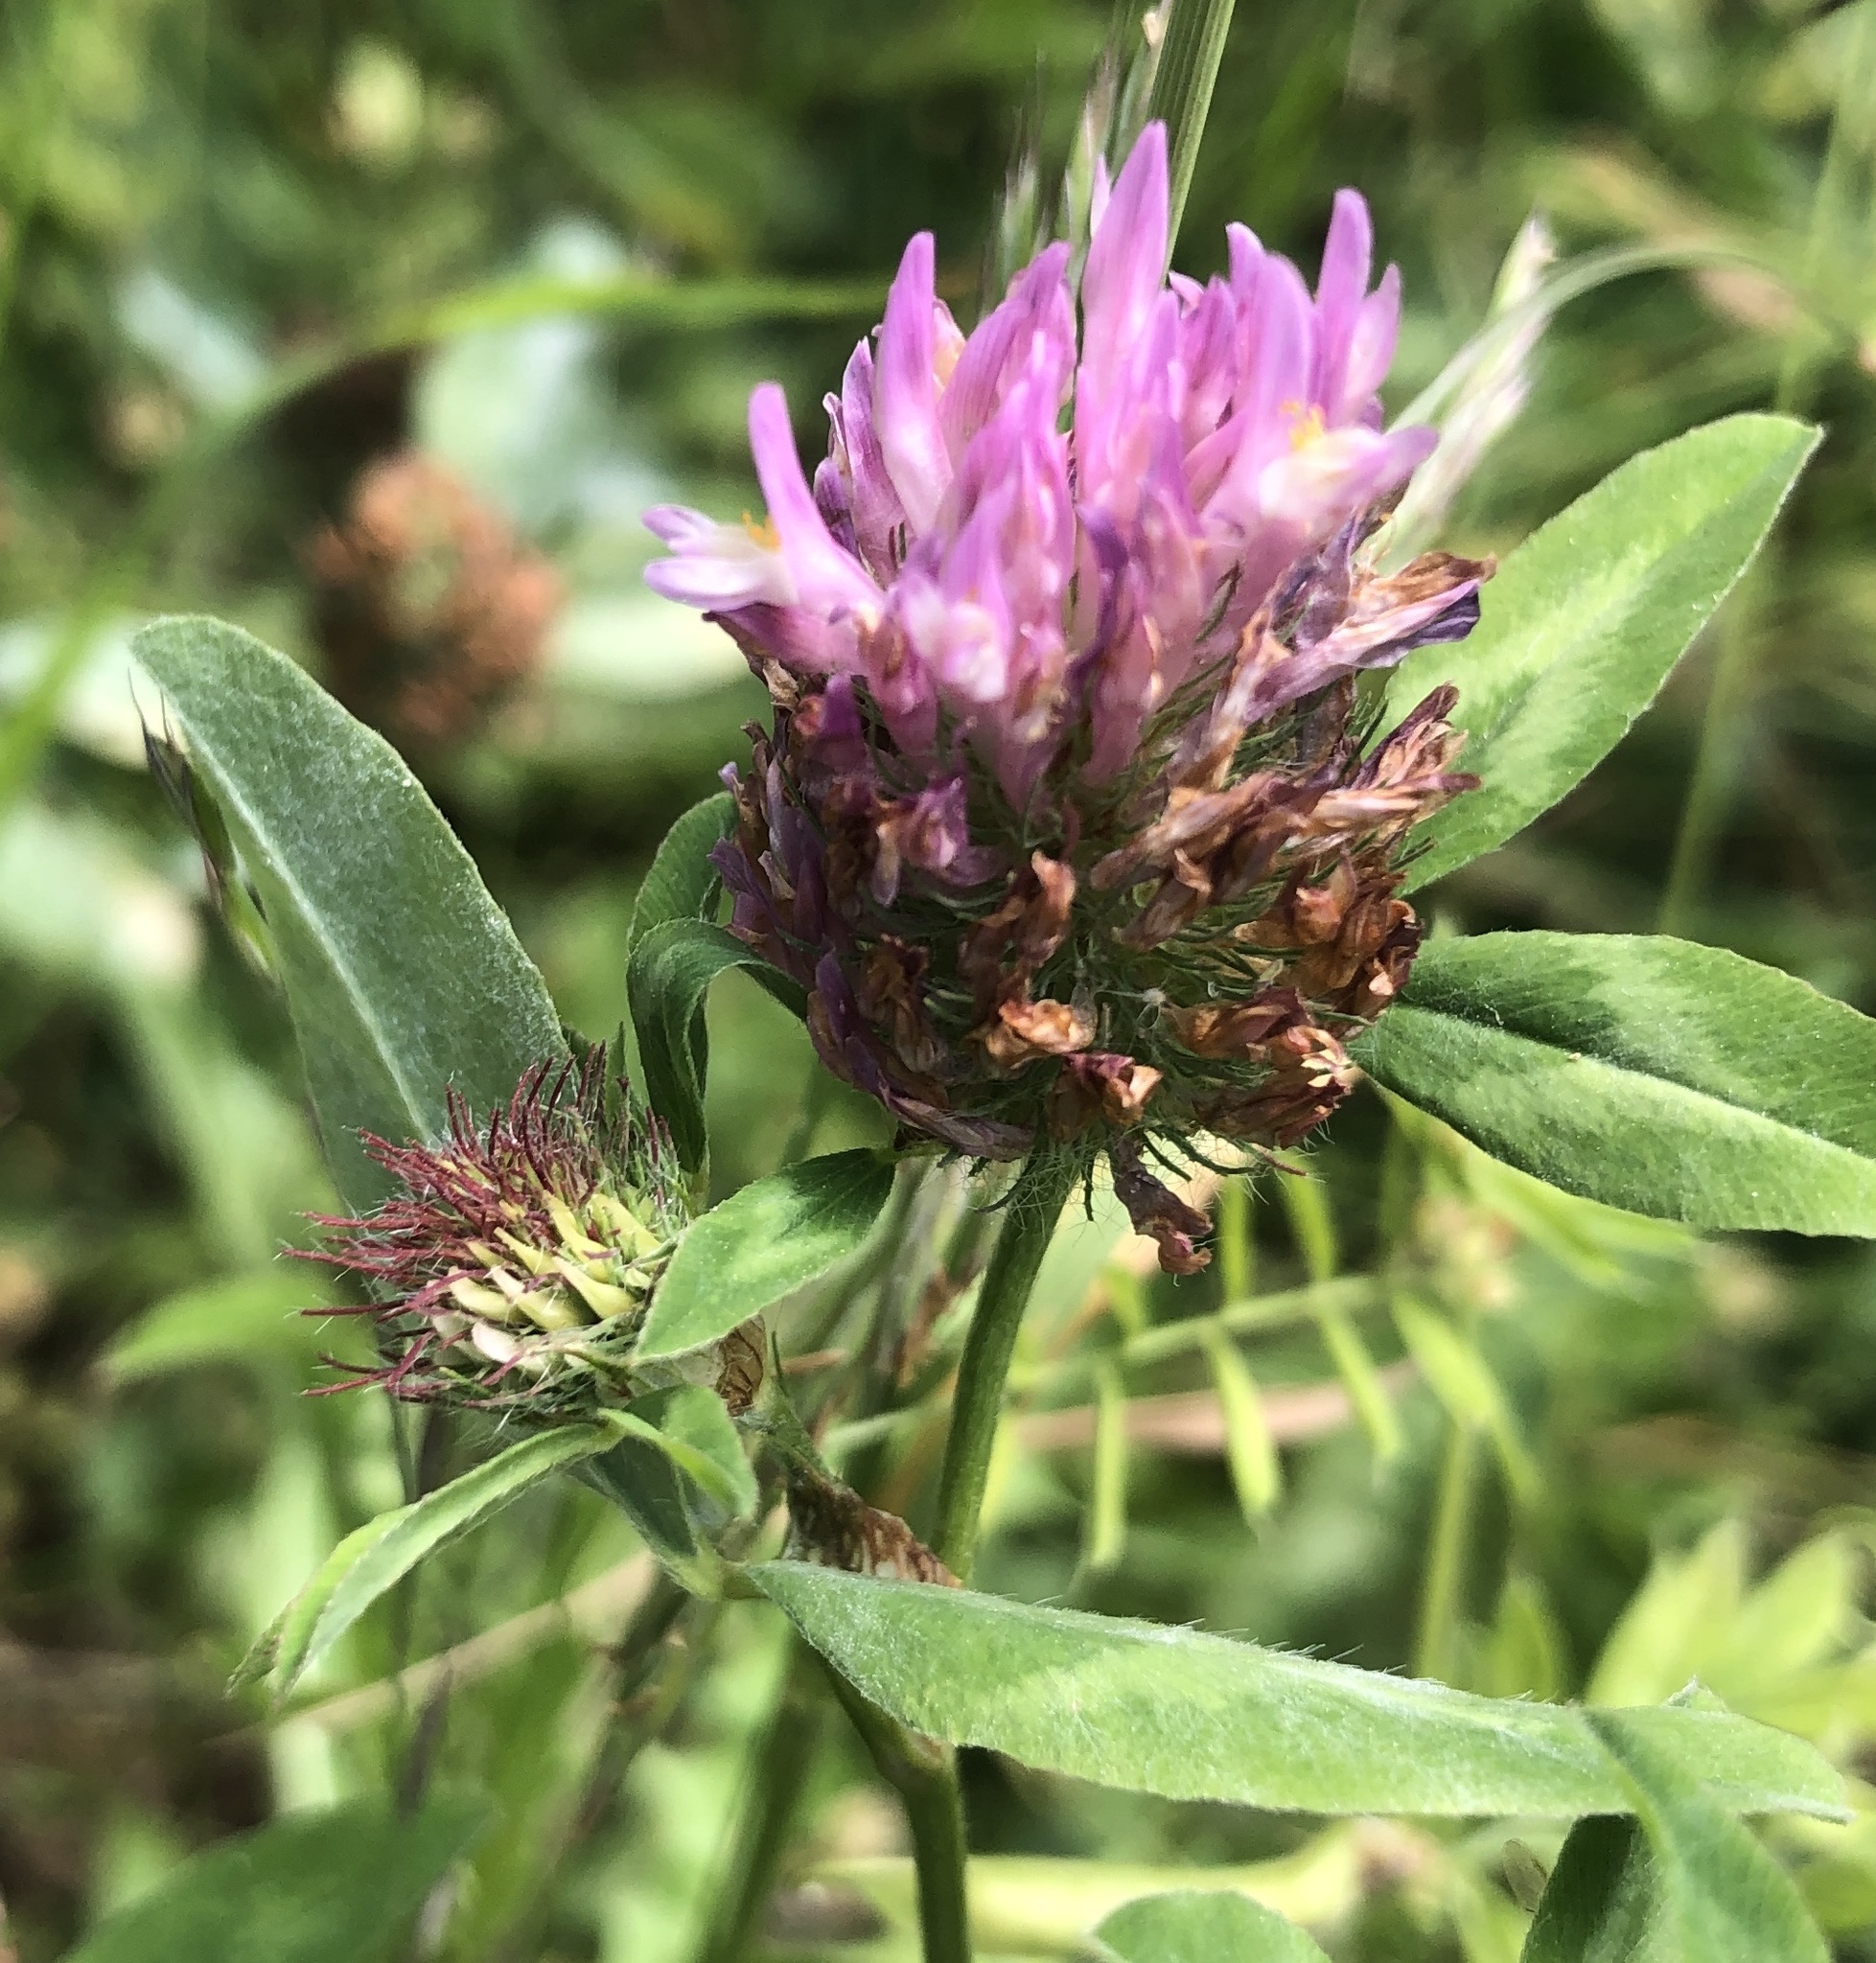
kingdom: Plantae
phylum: Tracheophyta
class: Magnoliopsida
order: Fabales
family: Fabaceae
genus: Trifolium
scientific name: Trifolium pratense
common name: Red clover
